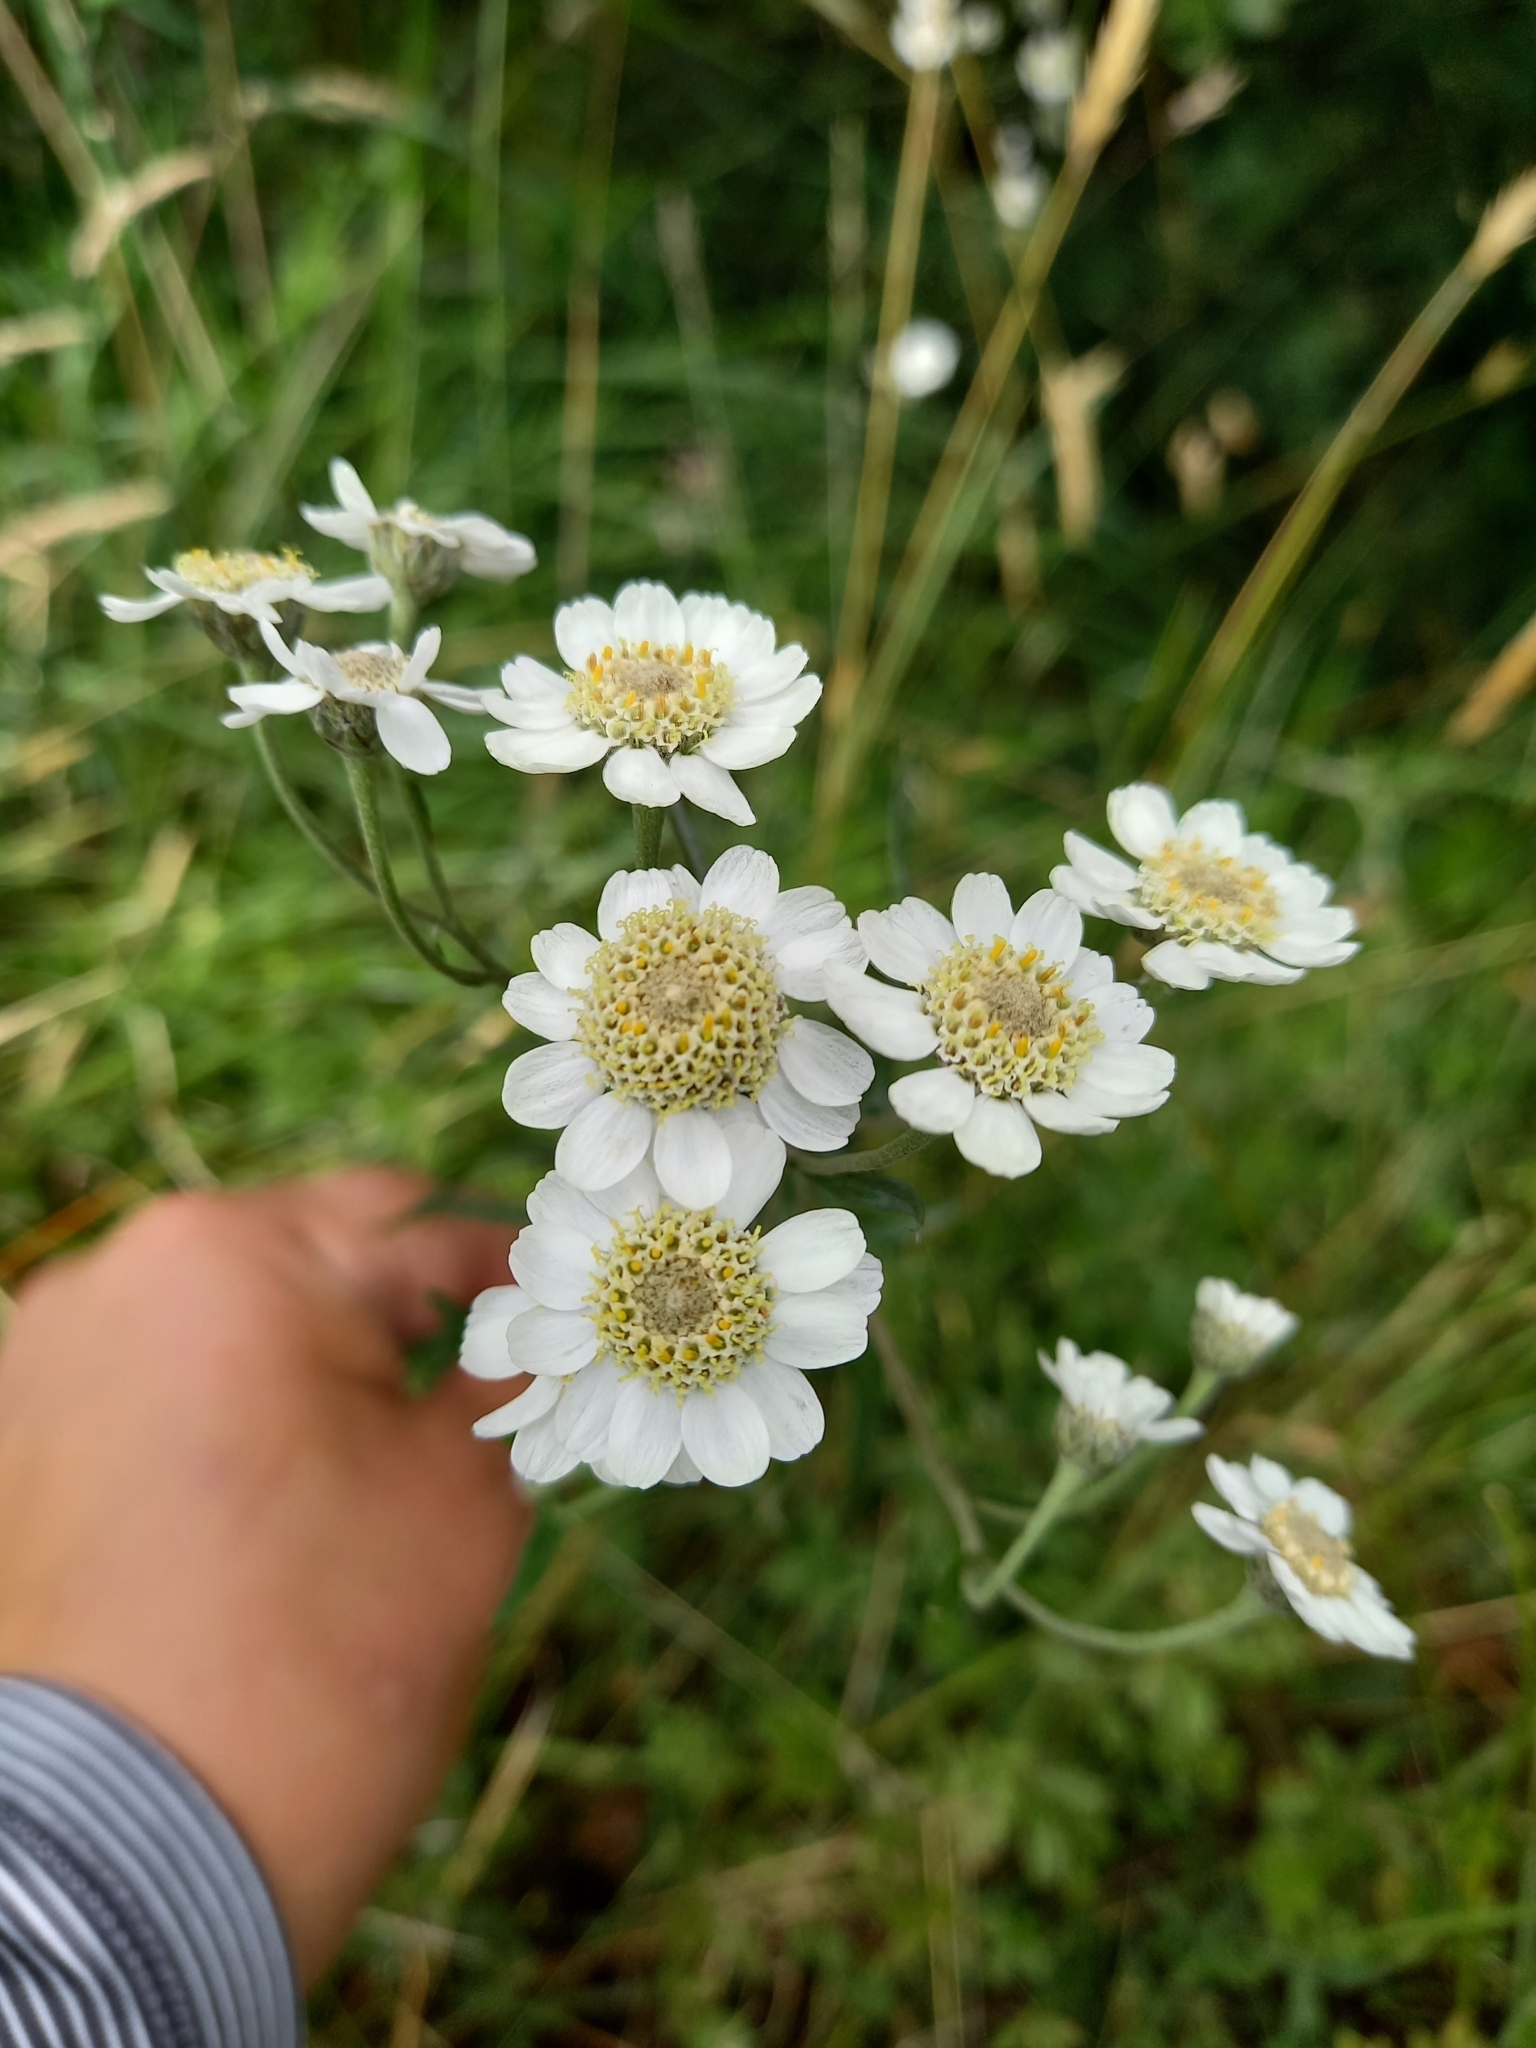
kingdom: Plantae
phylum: Tracheophyta
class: Magnoliopsida
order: Asterales
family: Asteraceae
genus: Achillea
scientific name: Achillea ptarmica
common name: Sneezeweed
